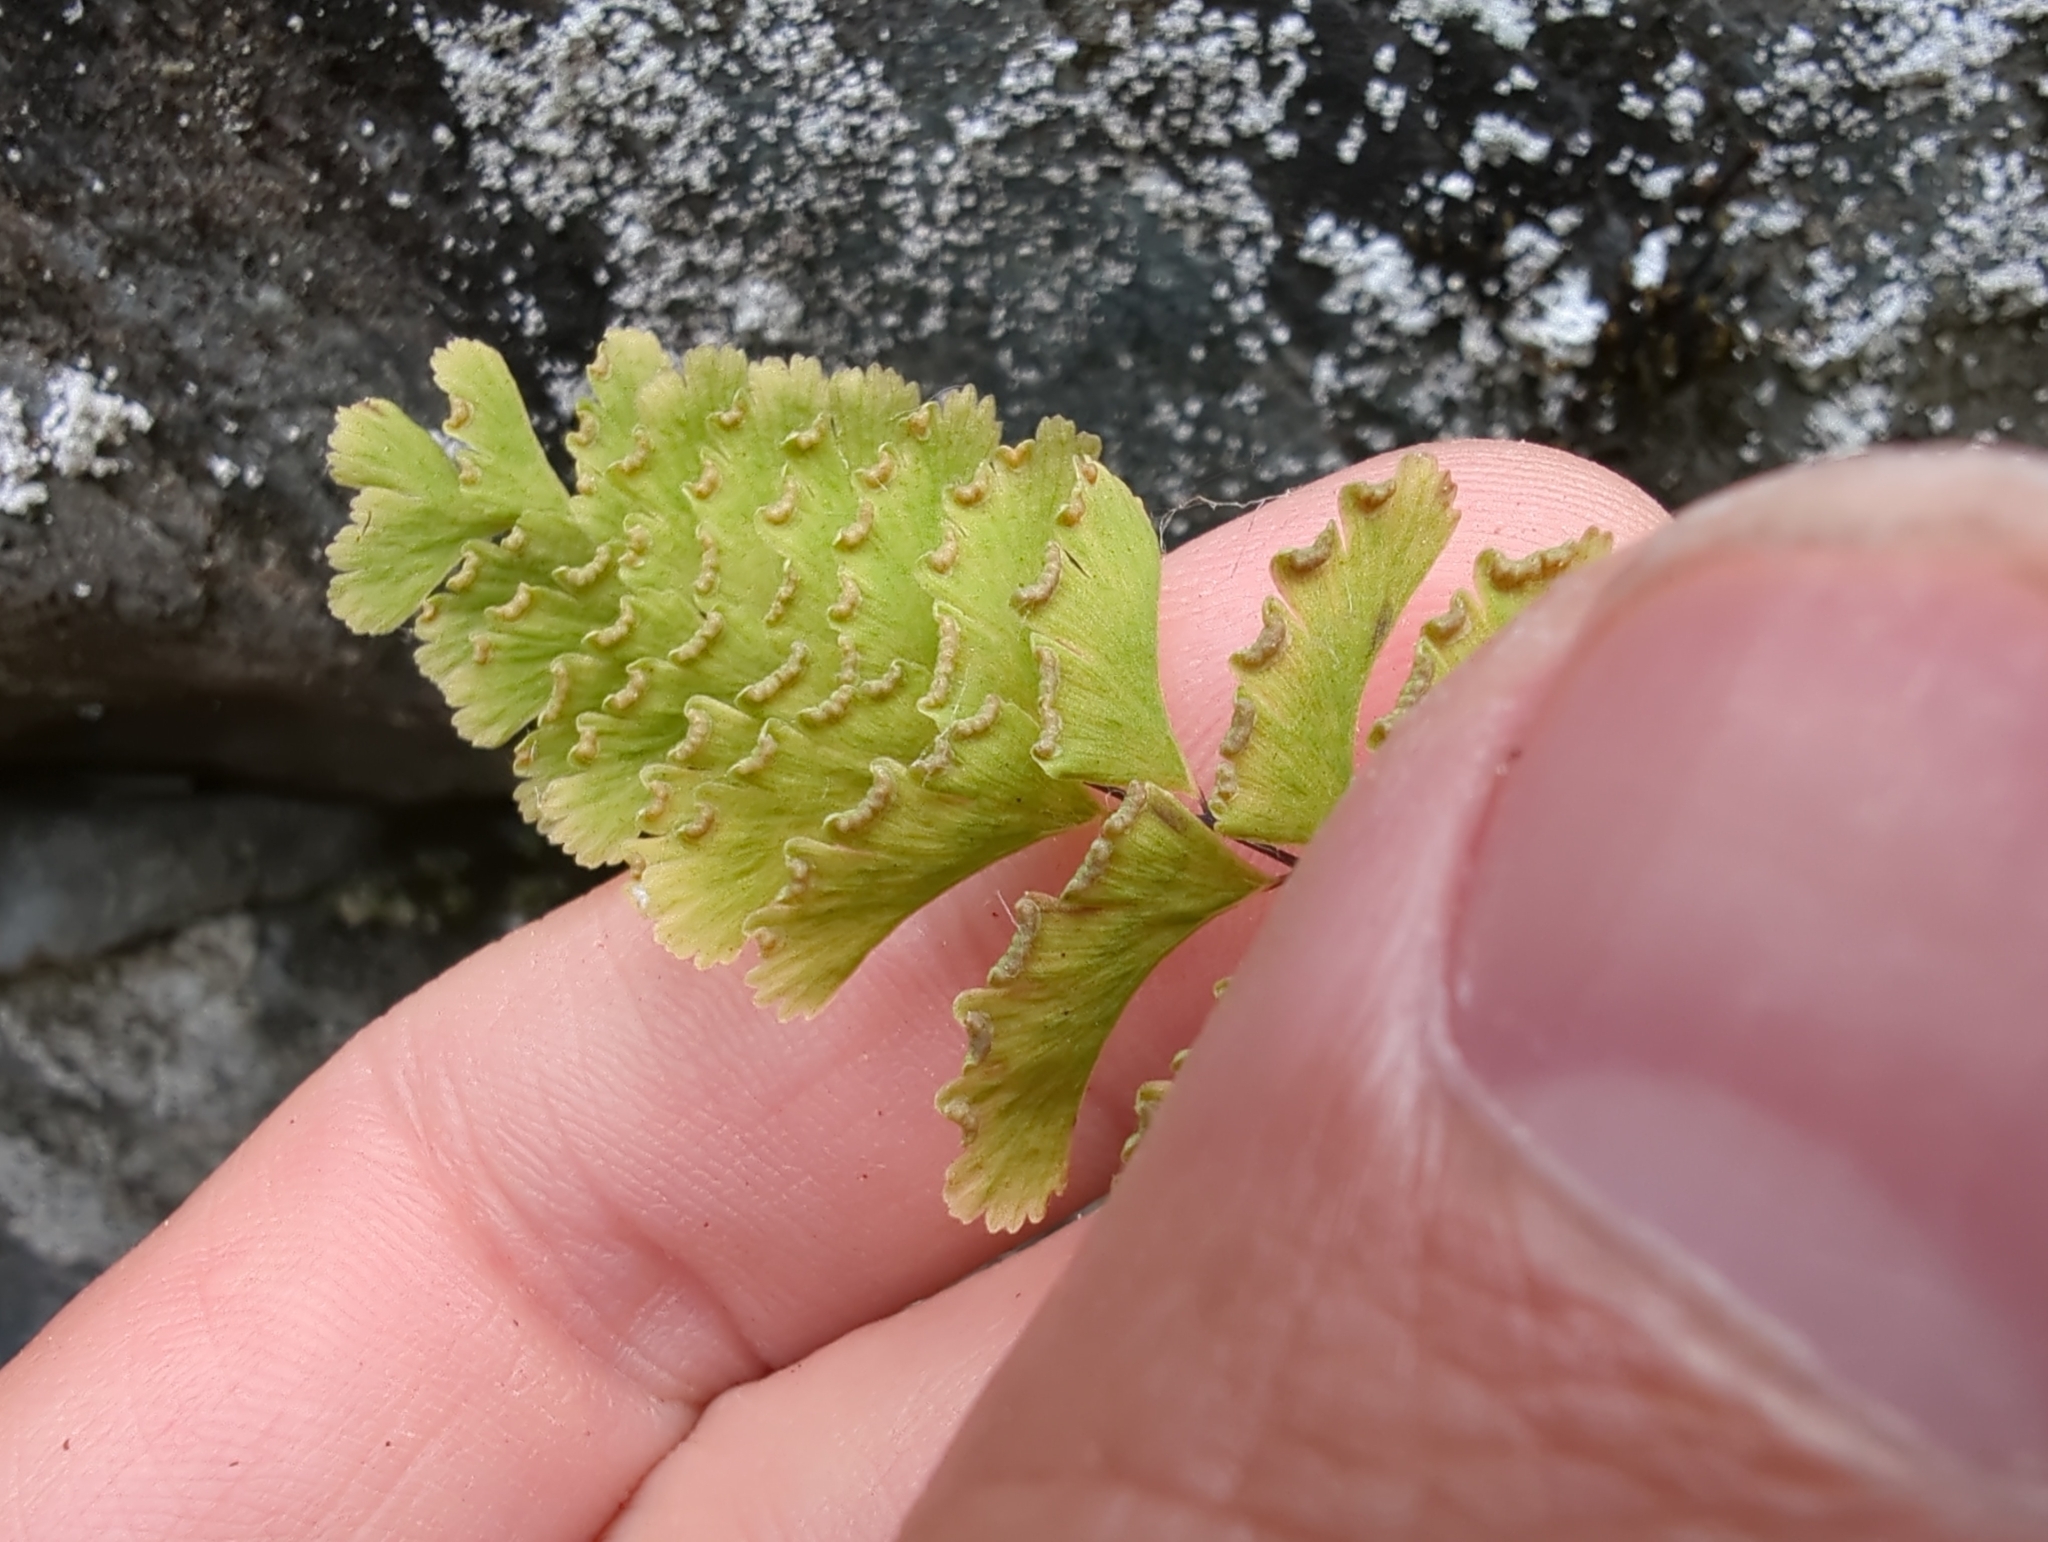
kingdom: Plantae
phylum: Tracheophyta
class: Polypodiopsida
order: Polypodiales
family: Pteridaceae
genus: Adiantum
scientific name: Adiantum aleuticum
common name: Aleutian maidenhair fern
